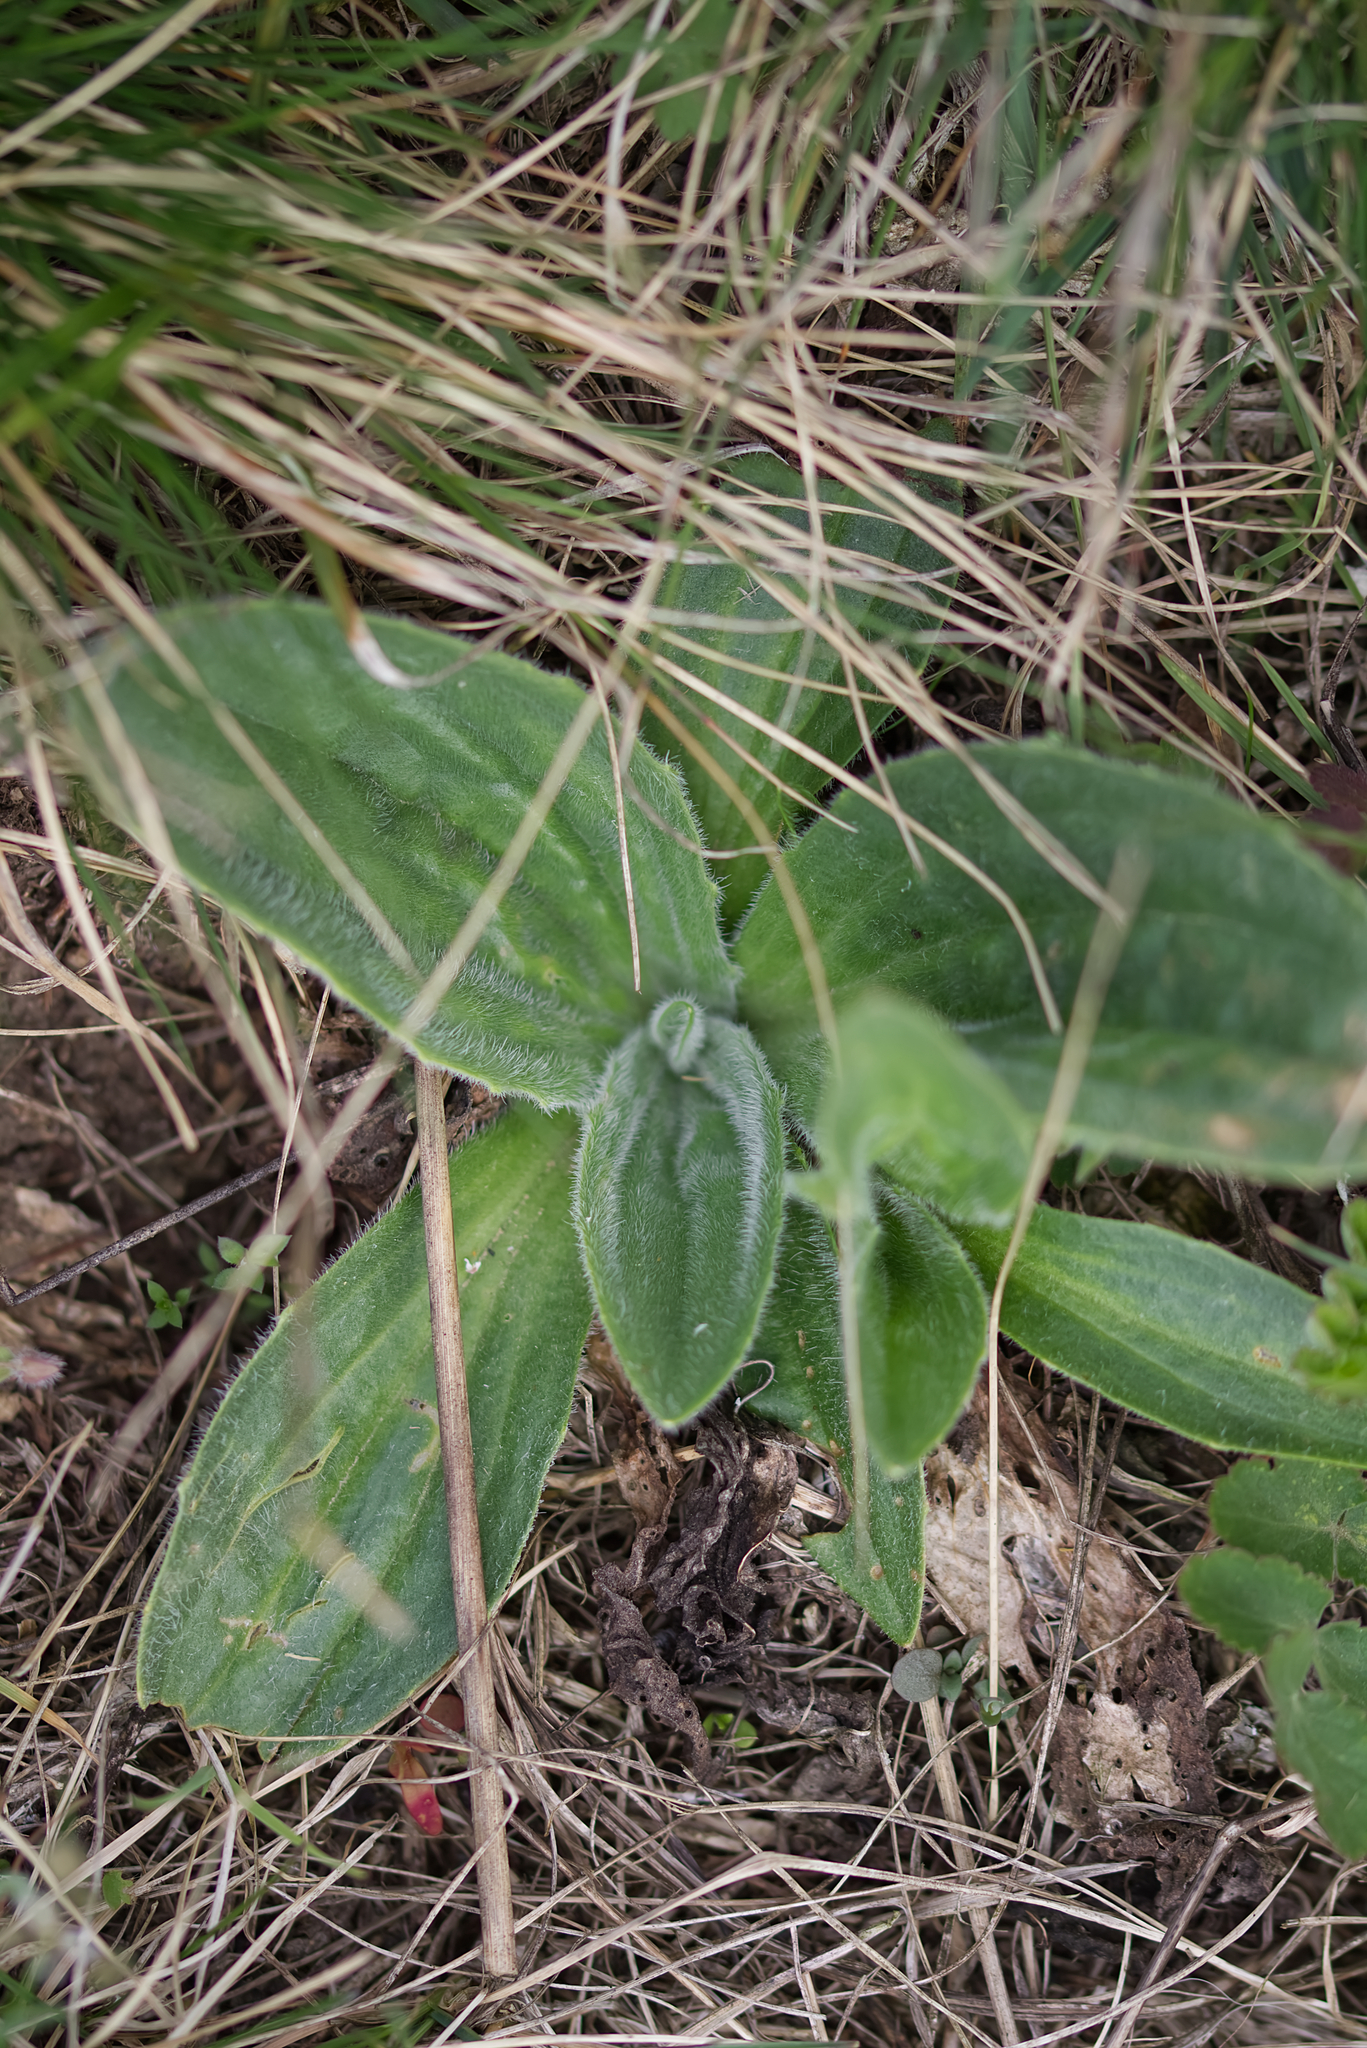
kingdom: Plantae
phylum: Tracheophyta
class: Magnoliopsida
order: Lamiales
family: Plantaginaceae
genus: Plantago
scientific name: Plantago media
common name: Hoary plantain
